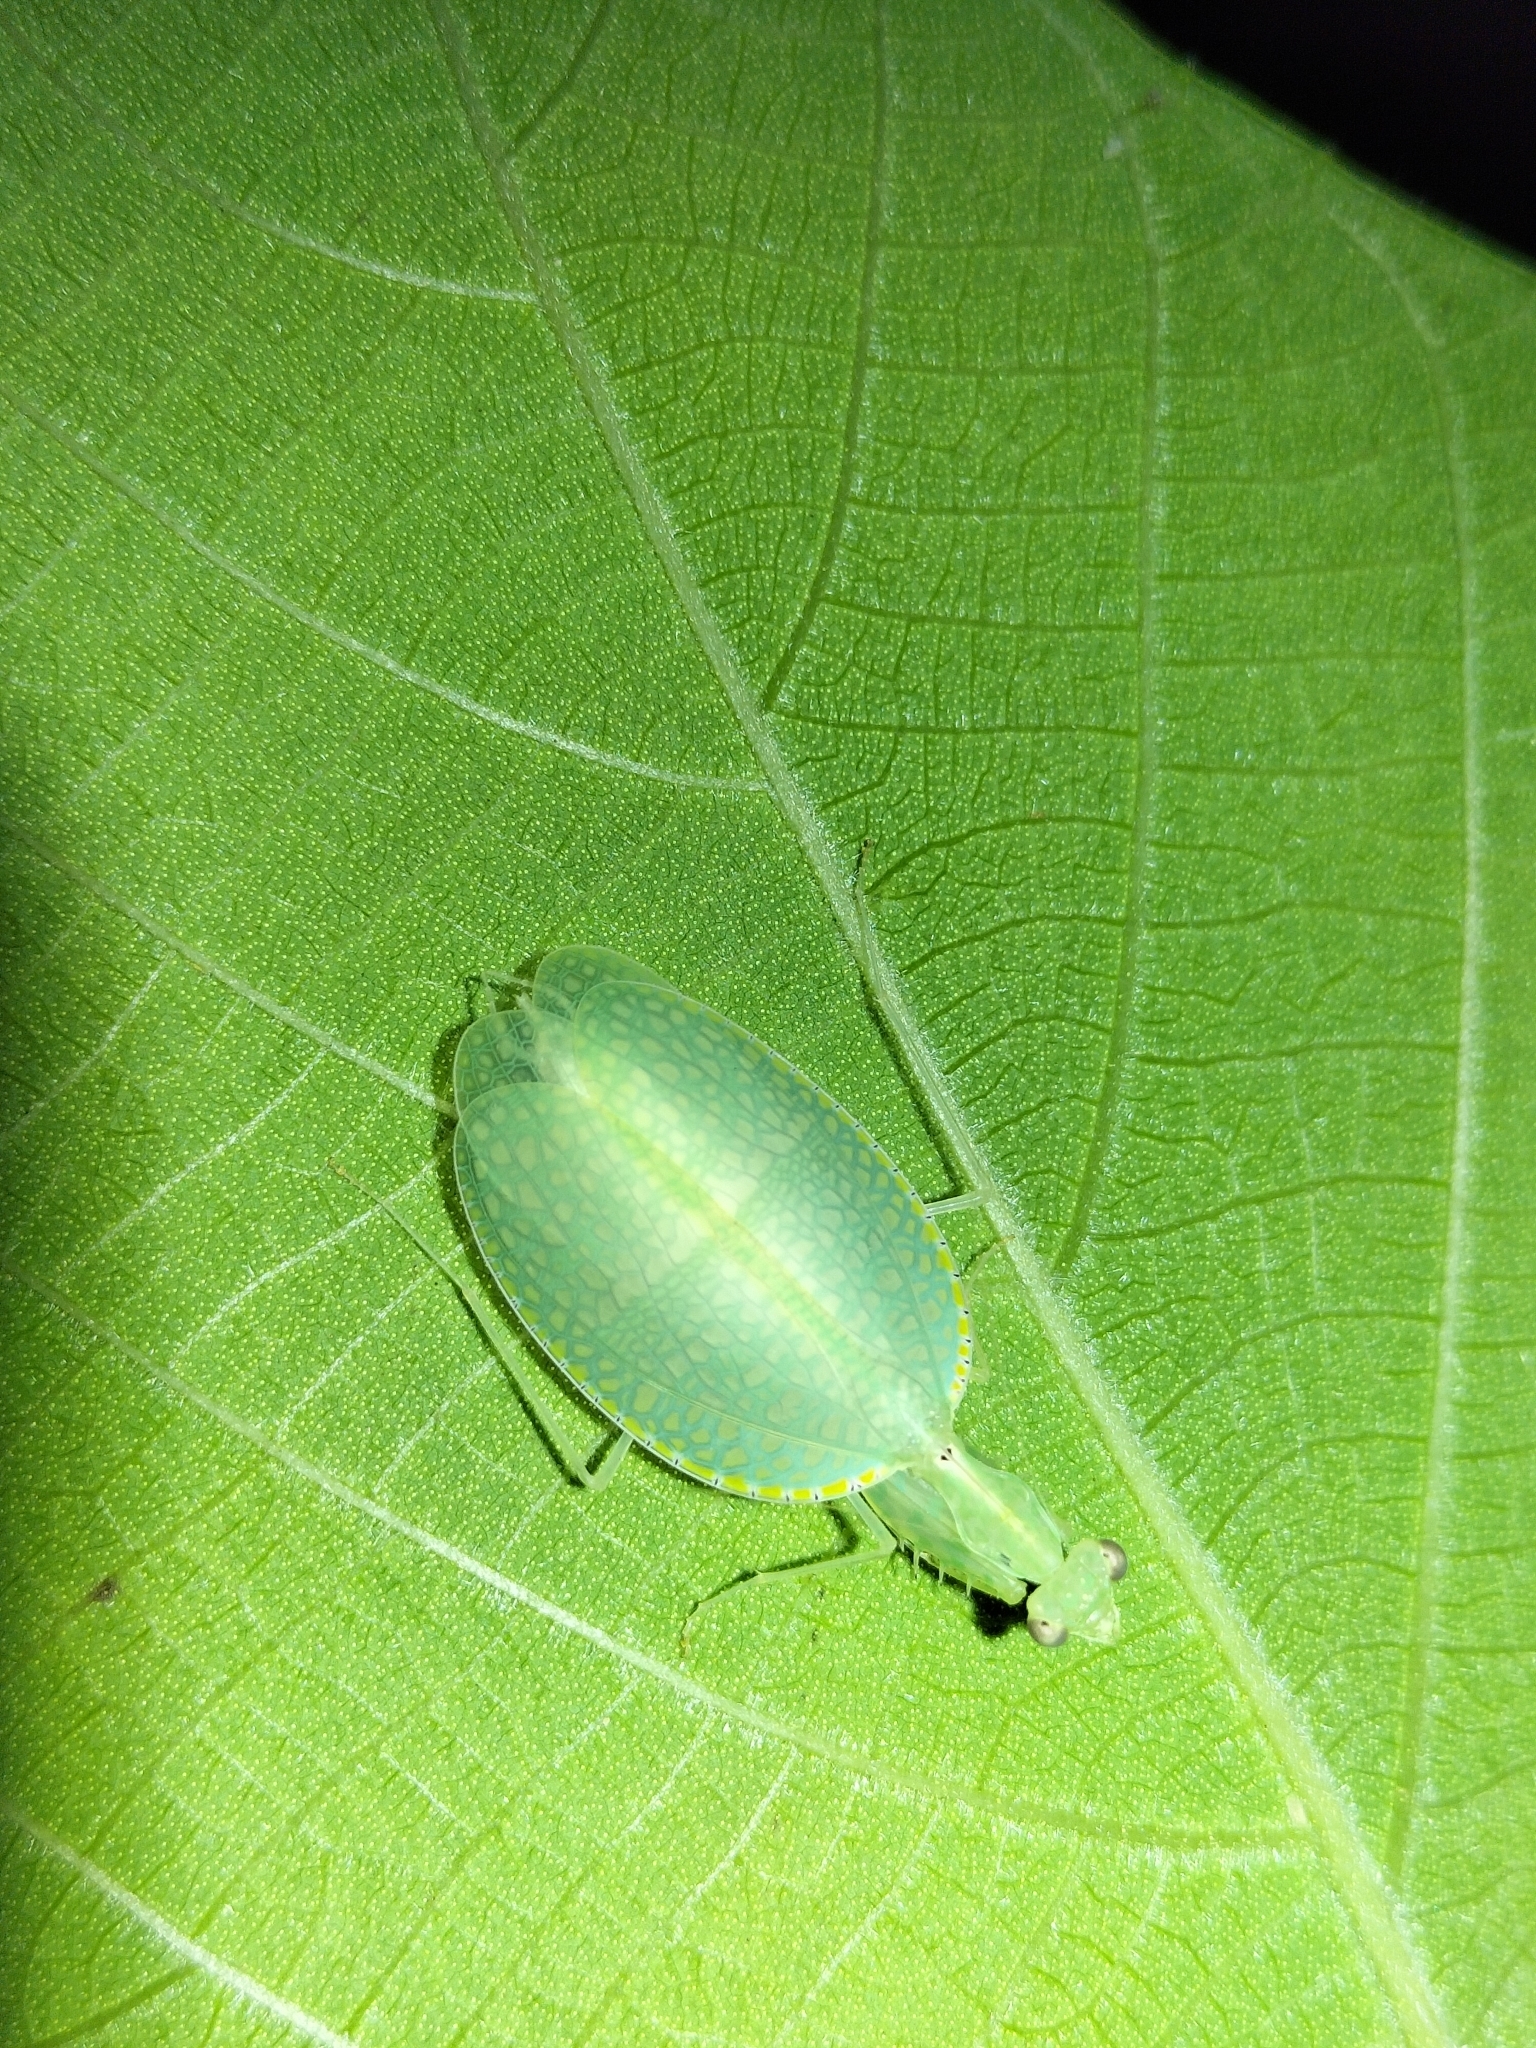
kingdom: Animalia
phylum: Arthropoda
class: Insecta
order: Mantodea
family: Nanomantidae
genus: Neomantis
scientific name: Neomantis australis
